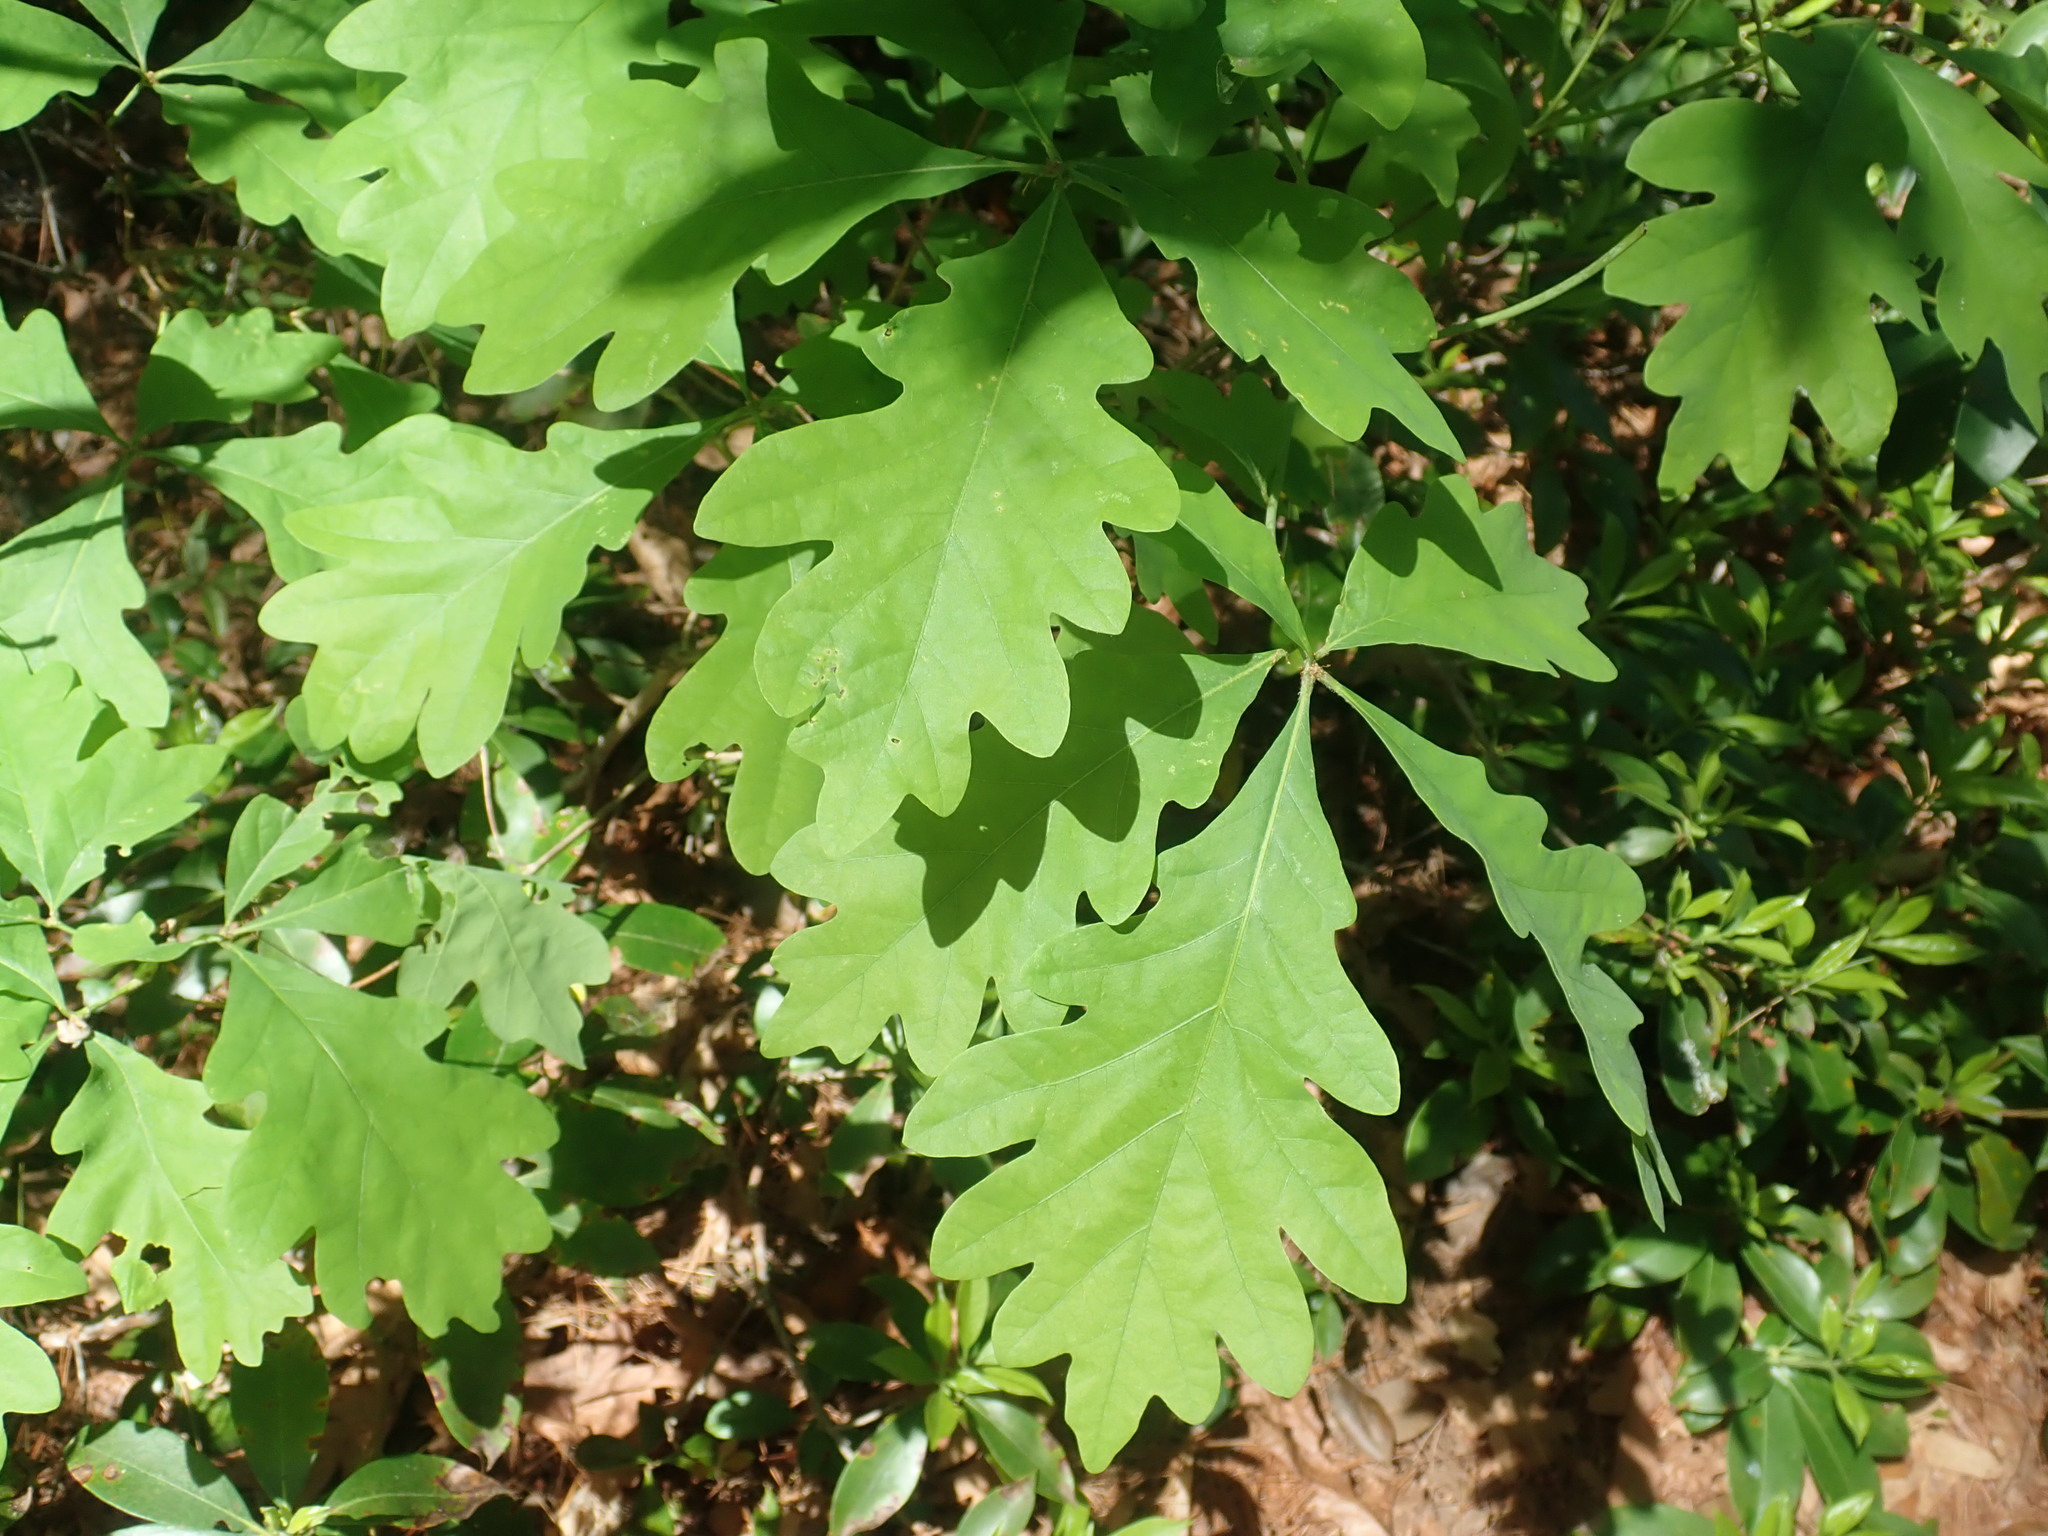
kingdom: Plantae
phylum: Tracheophyta
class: Magnoliopsida
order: Fagales
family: Fagaceae
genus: Quercus
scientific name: Quercus alba
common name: White oak
